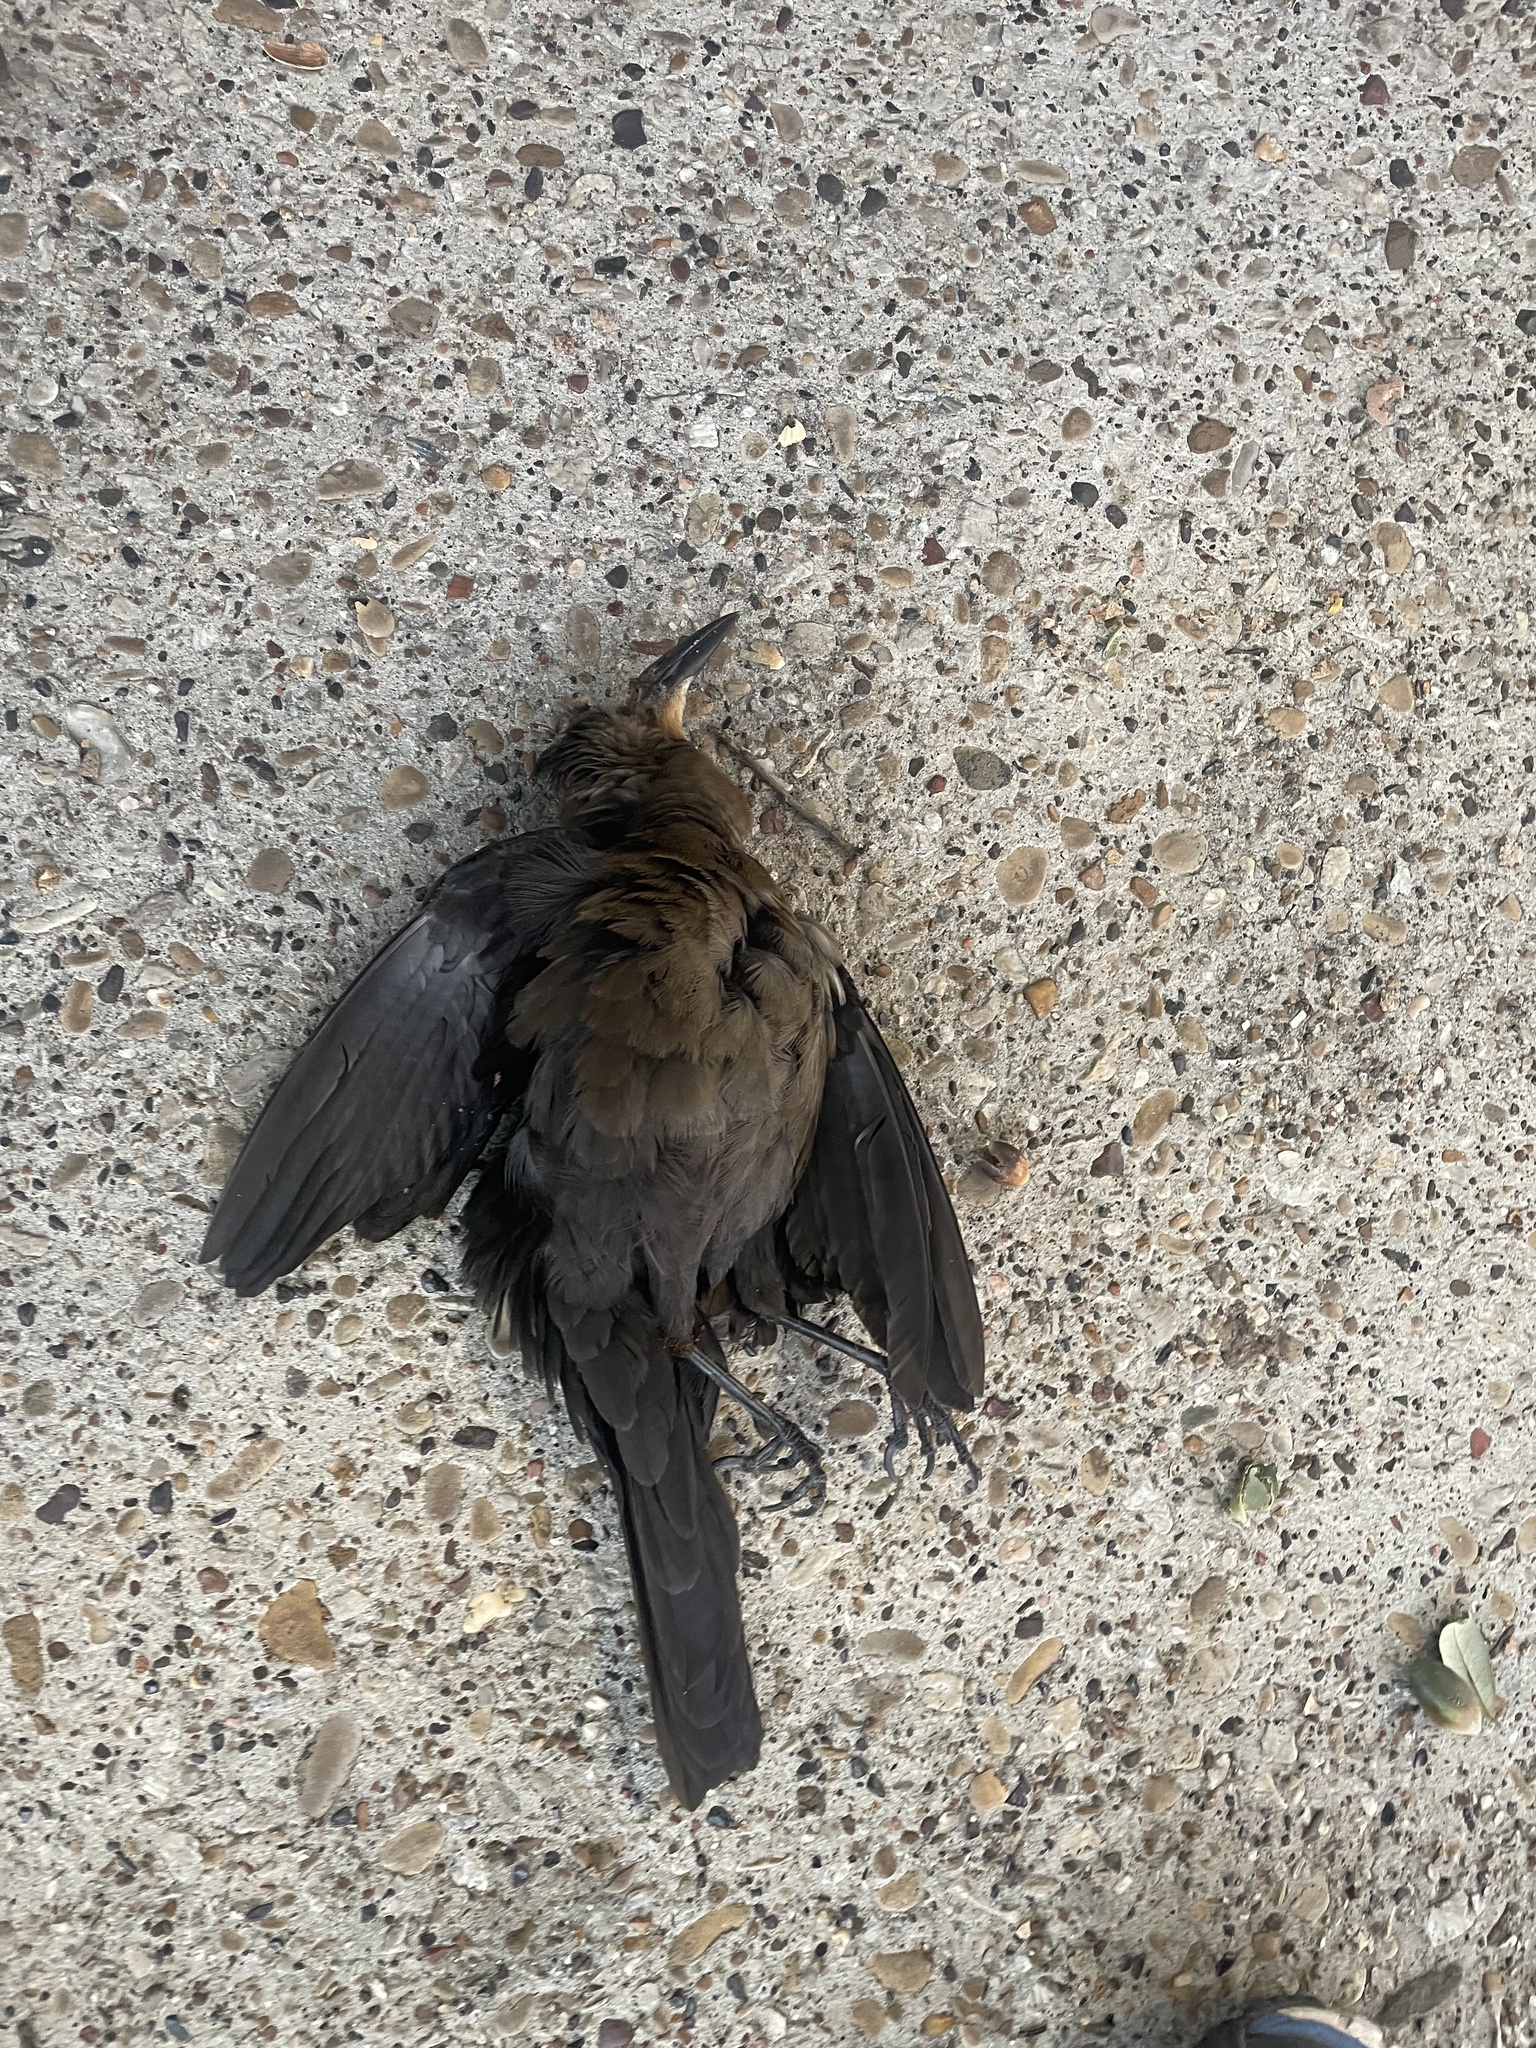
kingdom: Animalia
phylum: Chordata
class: Aves
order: Passeriformes
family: Icteridae
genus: Quiscalus
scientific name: Quiscalus mexicanus
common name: Great-tailed grackle
